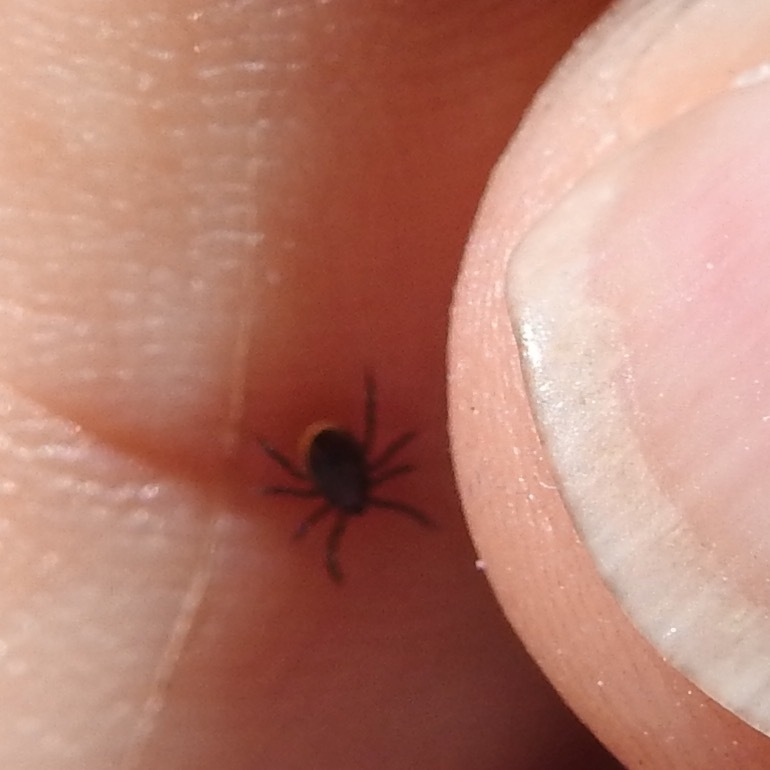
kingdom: Animalia
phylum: Arthropoda
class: Arachnida
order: Ixodida
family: Ixodidae
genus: Ixodes
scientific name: Ixodes pacificus
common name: California black-legged tick
